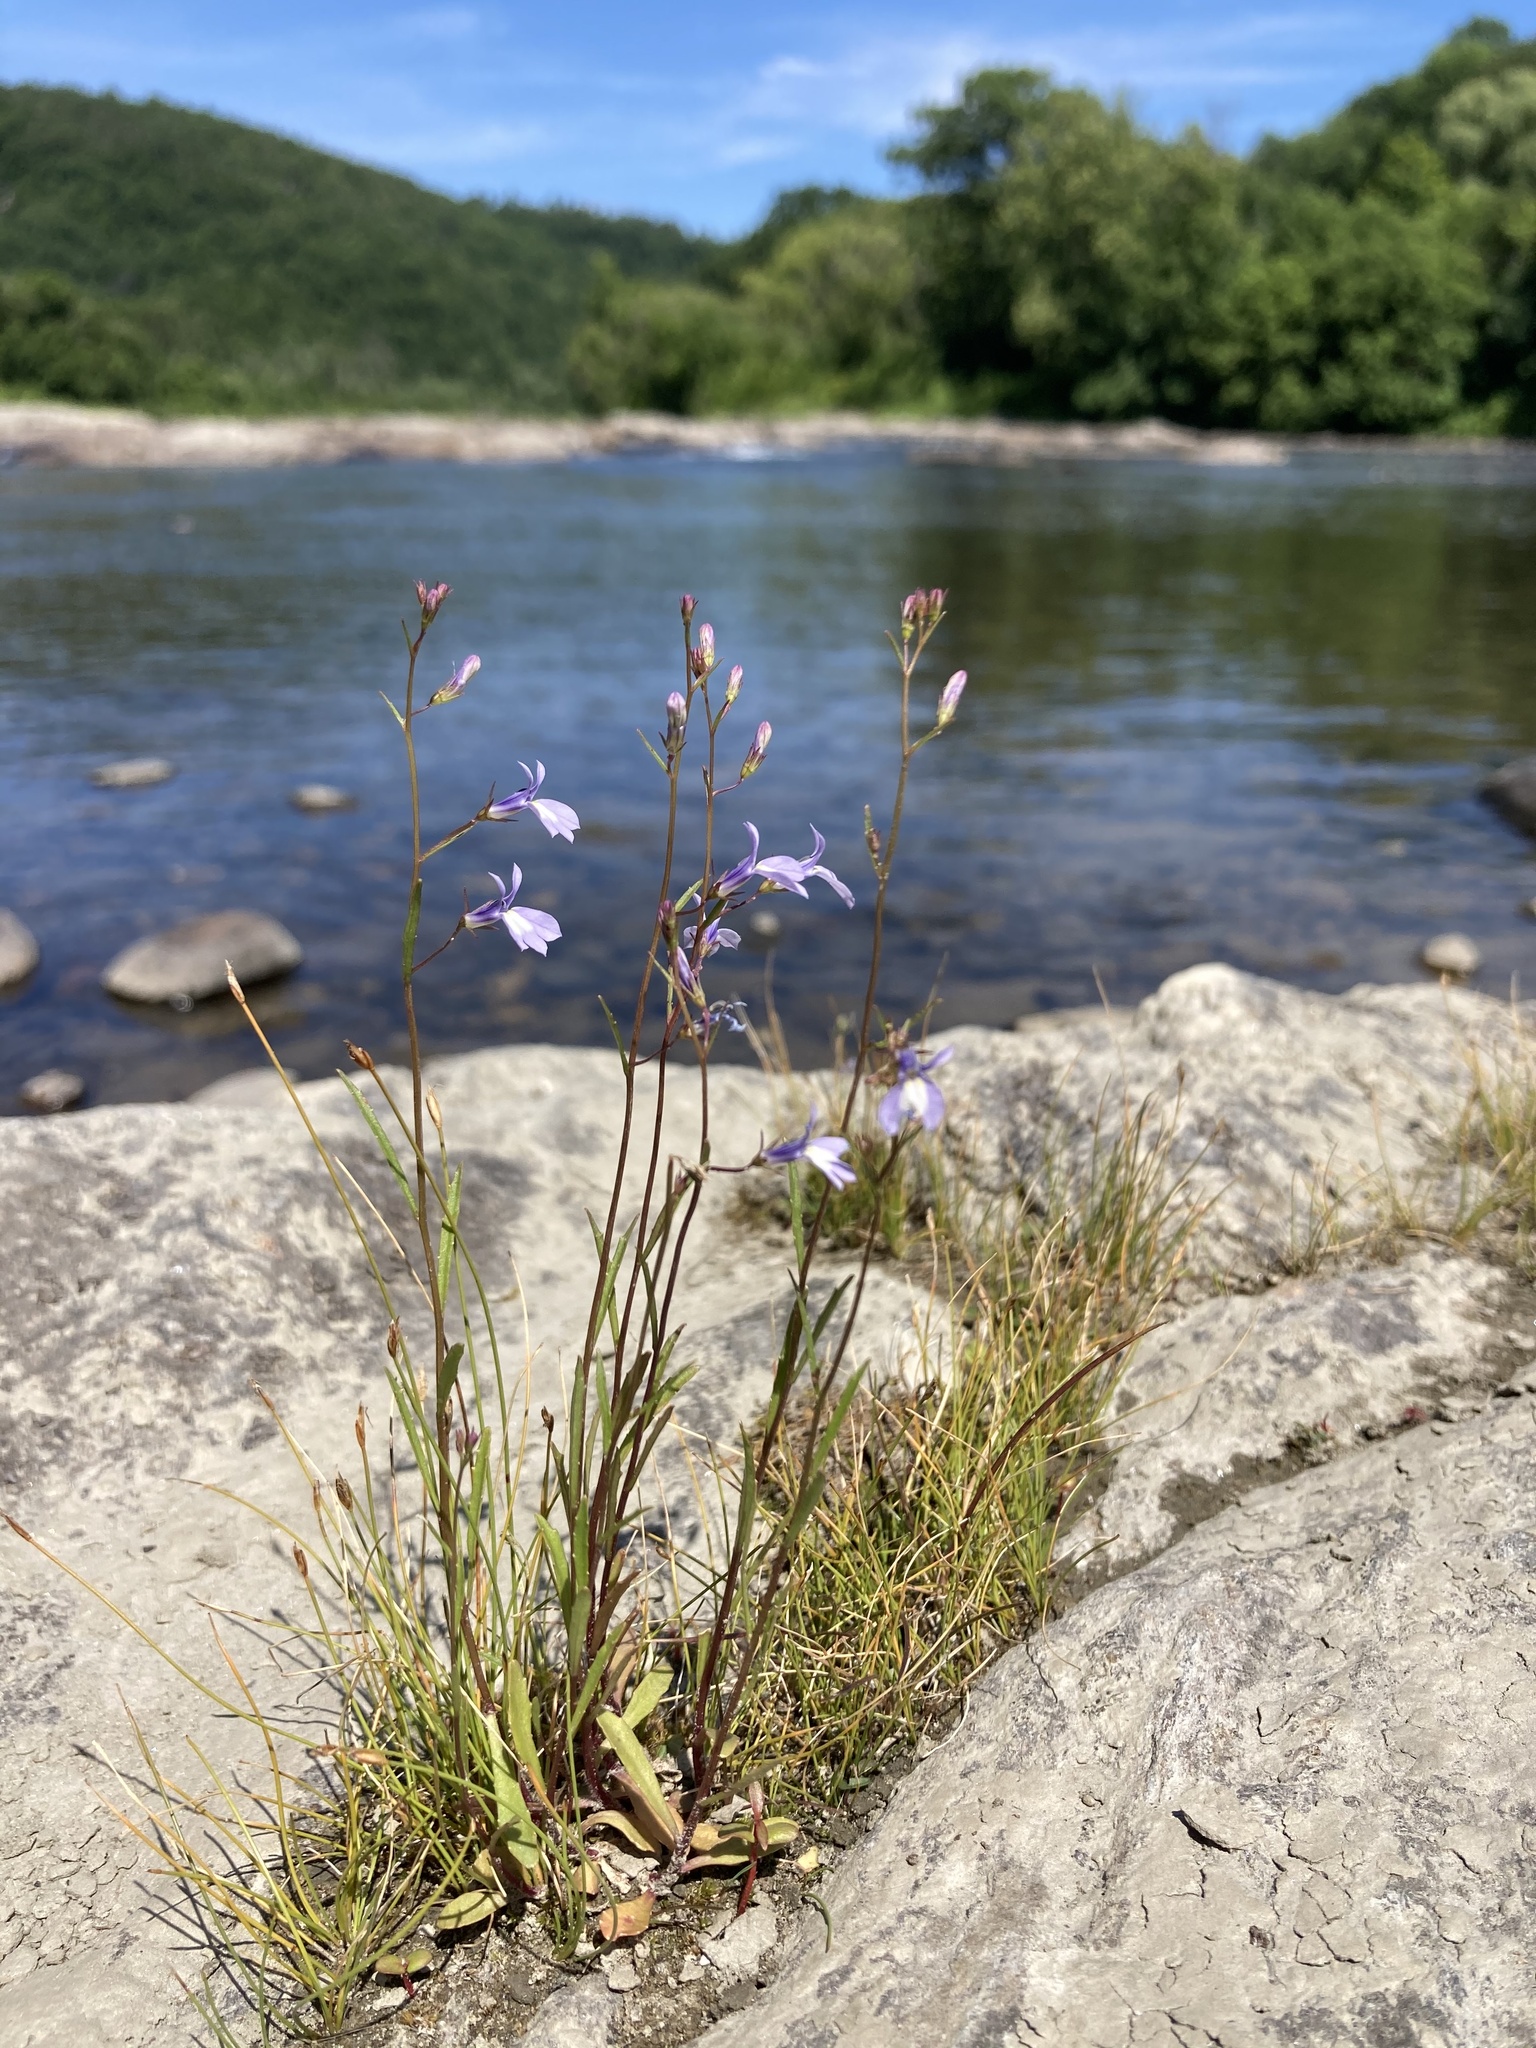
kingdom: Plantae
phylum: Tracheophyta
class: Magnoliopsida
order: Asterales
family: Campanulaceae
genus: Lobelia
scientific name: Lobelia kalmii
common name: Kalm's lobelia
